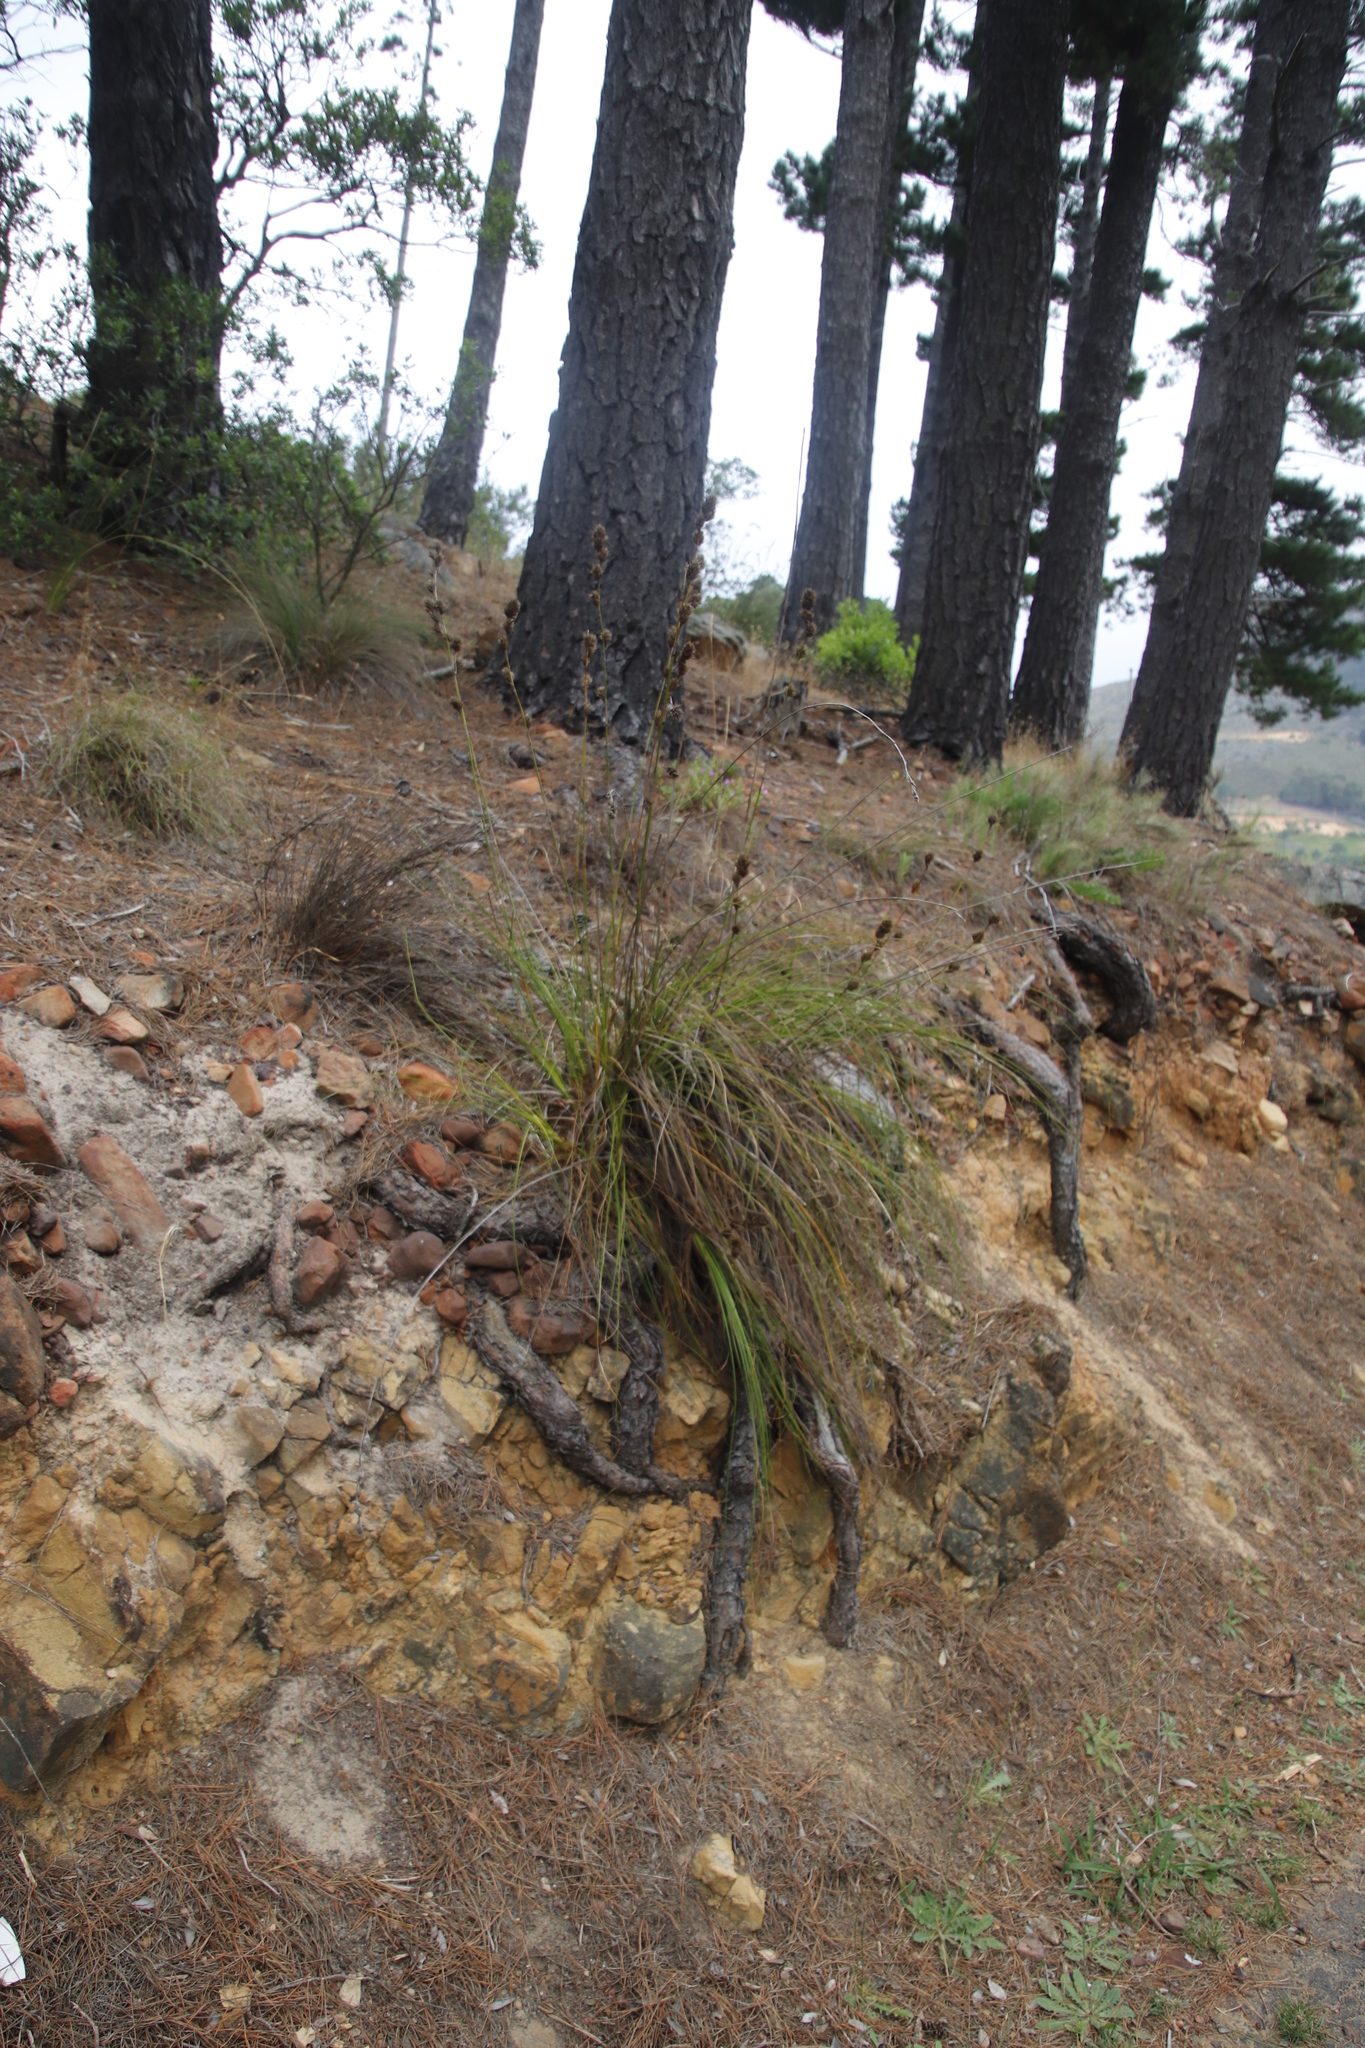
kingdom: Plantae
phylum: Tracheophyta
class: Liliopsida
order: Poales
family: Cyperaceae
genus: Tetraria
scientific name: Tetraria bromoides
